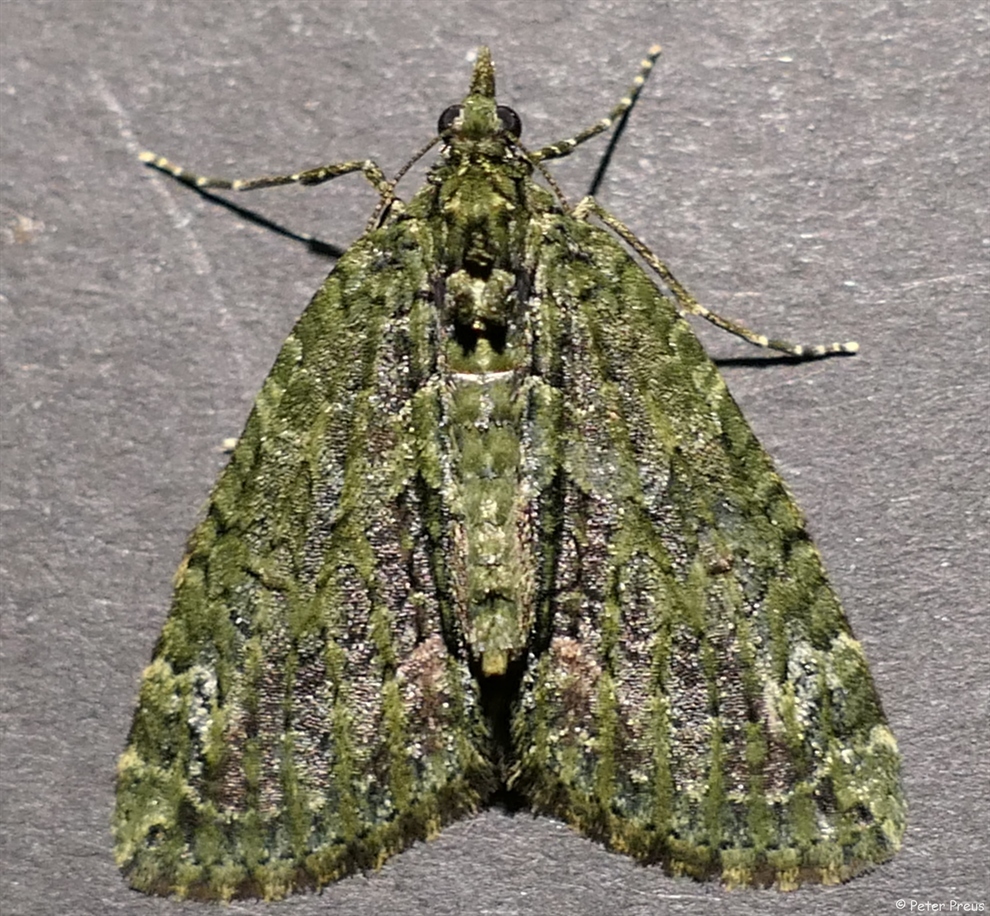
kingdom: Animalia
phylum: Arthropoda
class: Insecta
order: Lepidoptera
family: Geometridae
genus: Chloroclysta
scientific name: Chloroclysta siterata
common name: Red-green carpet
